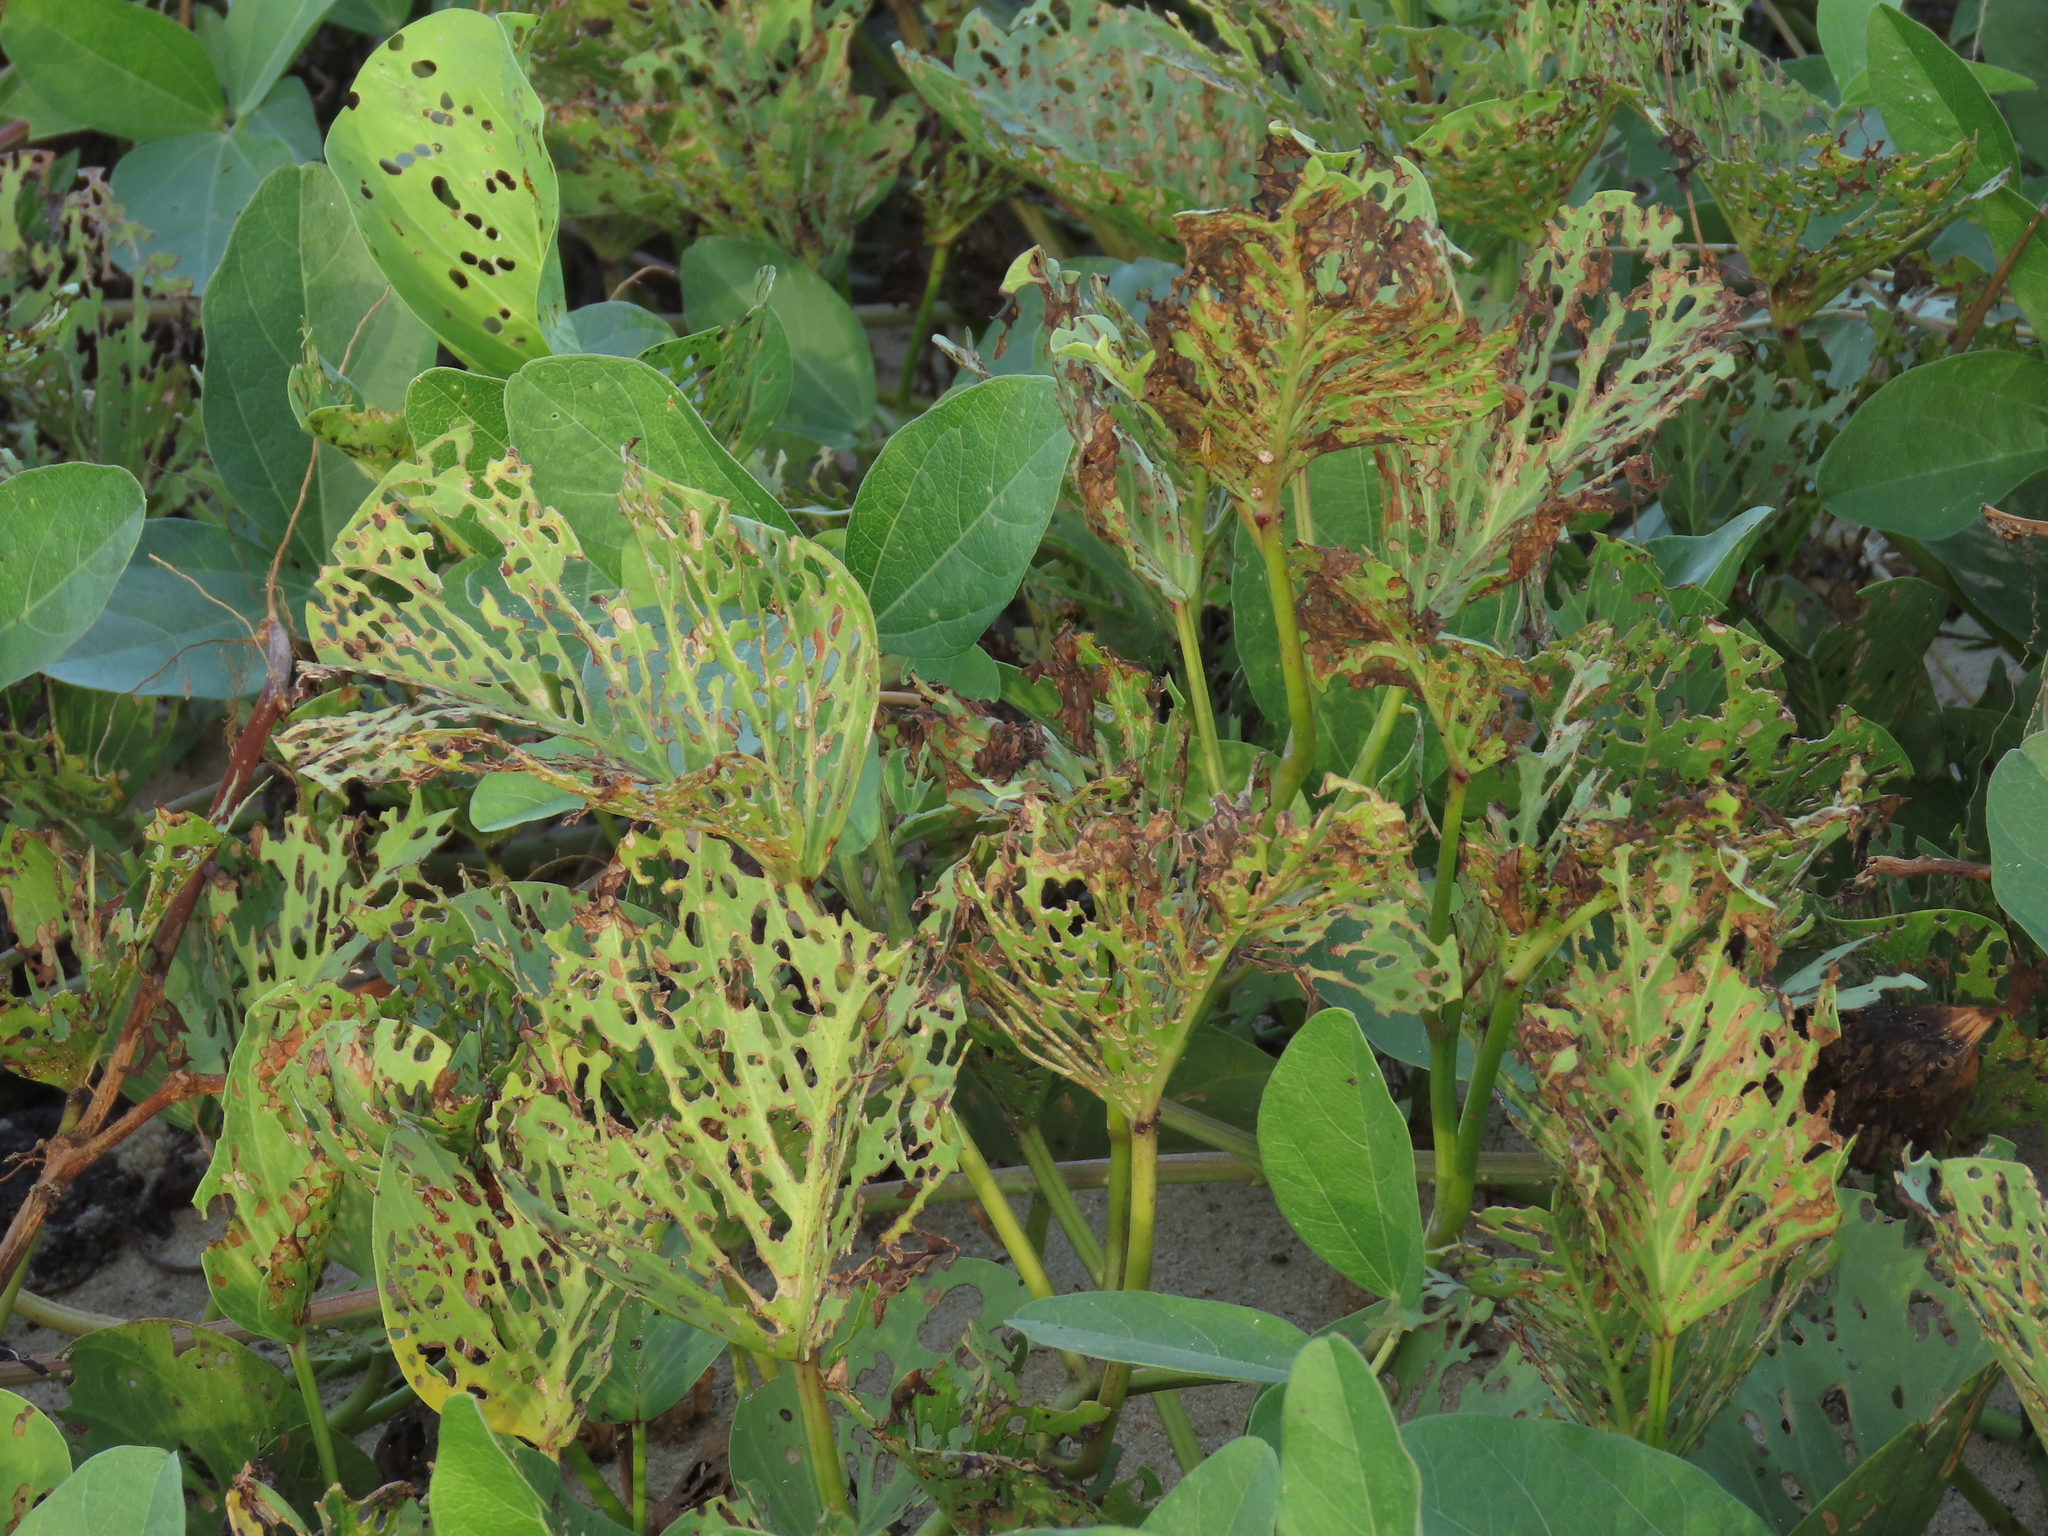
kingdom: Animalia
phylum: Arthropoda
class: Insecta
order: Coleoptera
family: Chrysomelidae
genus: Aspidimorpha
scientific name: Aspidimorpha deusta
